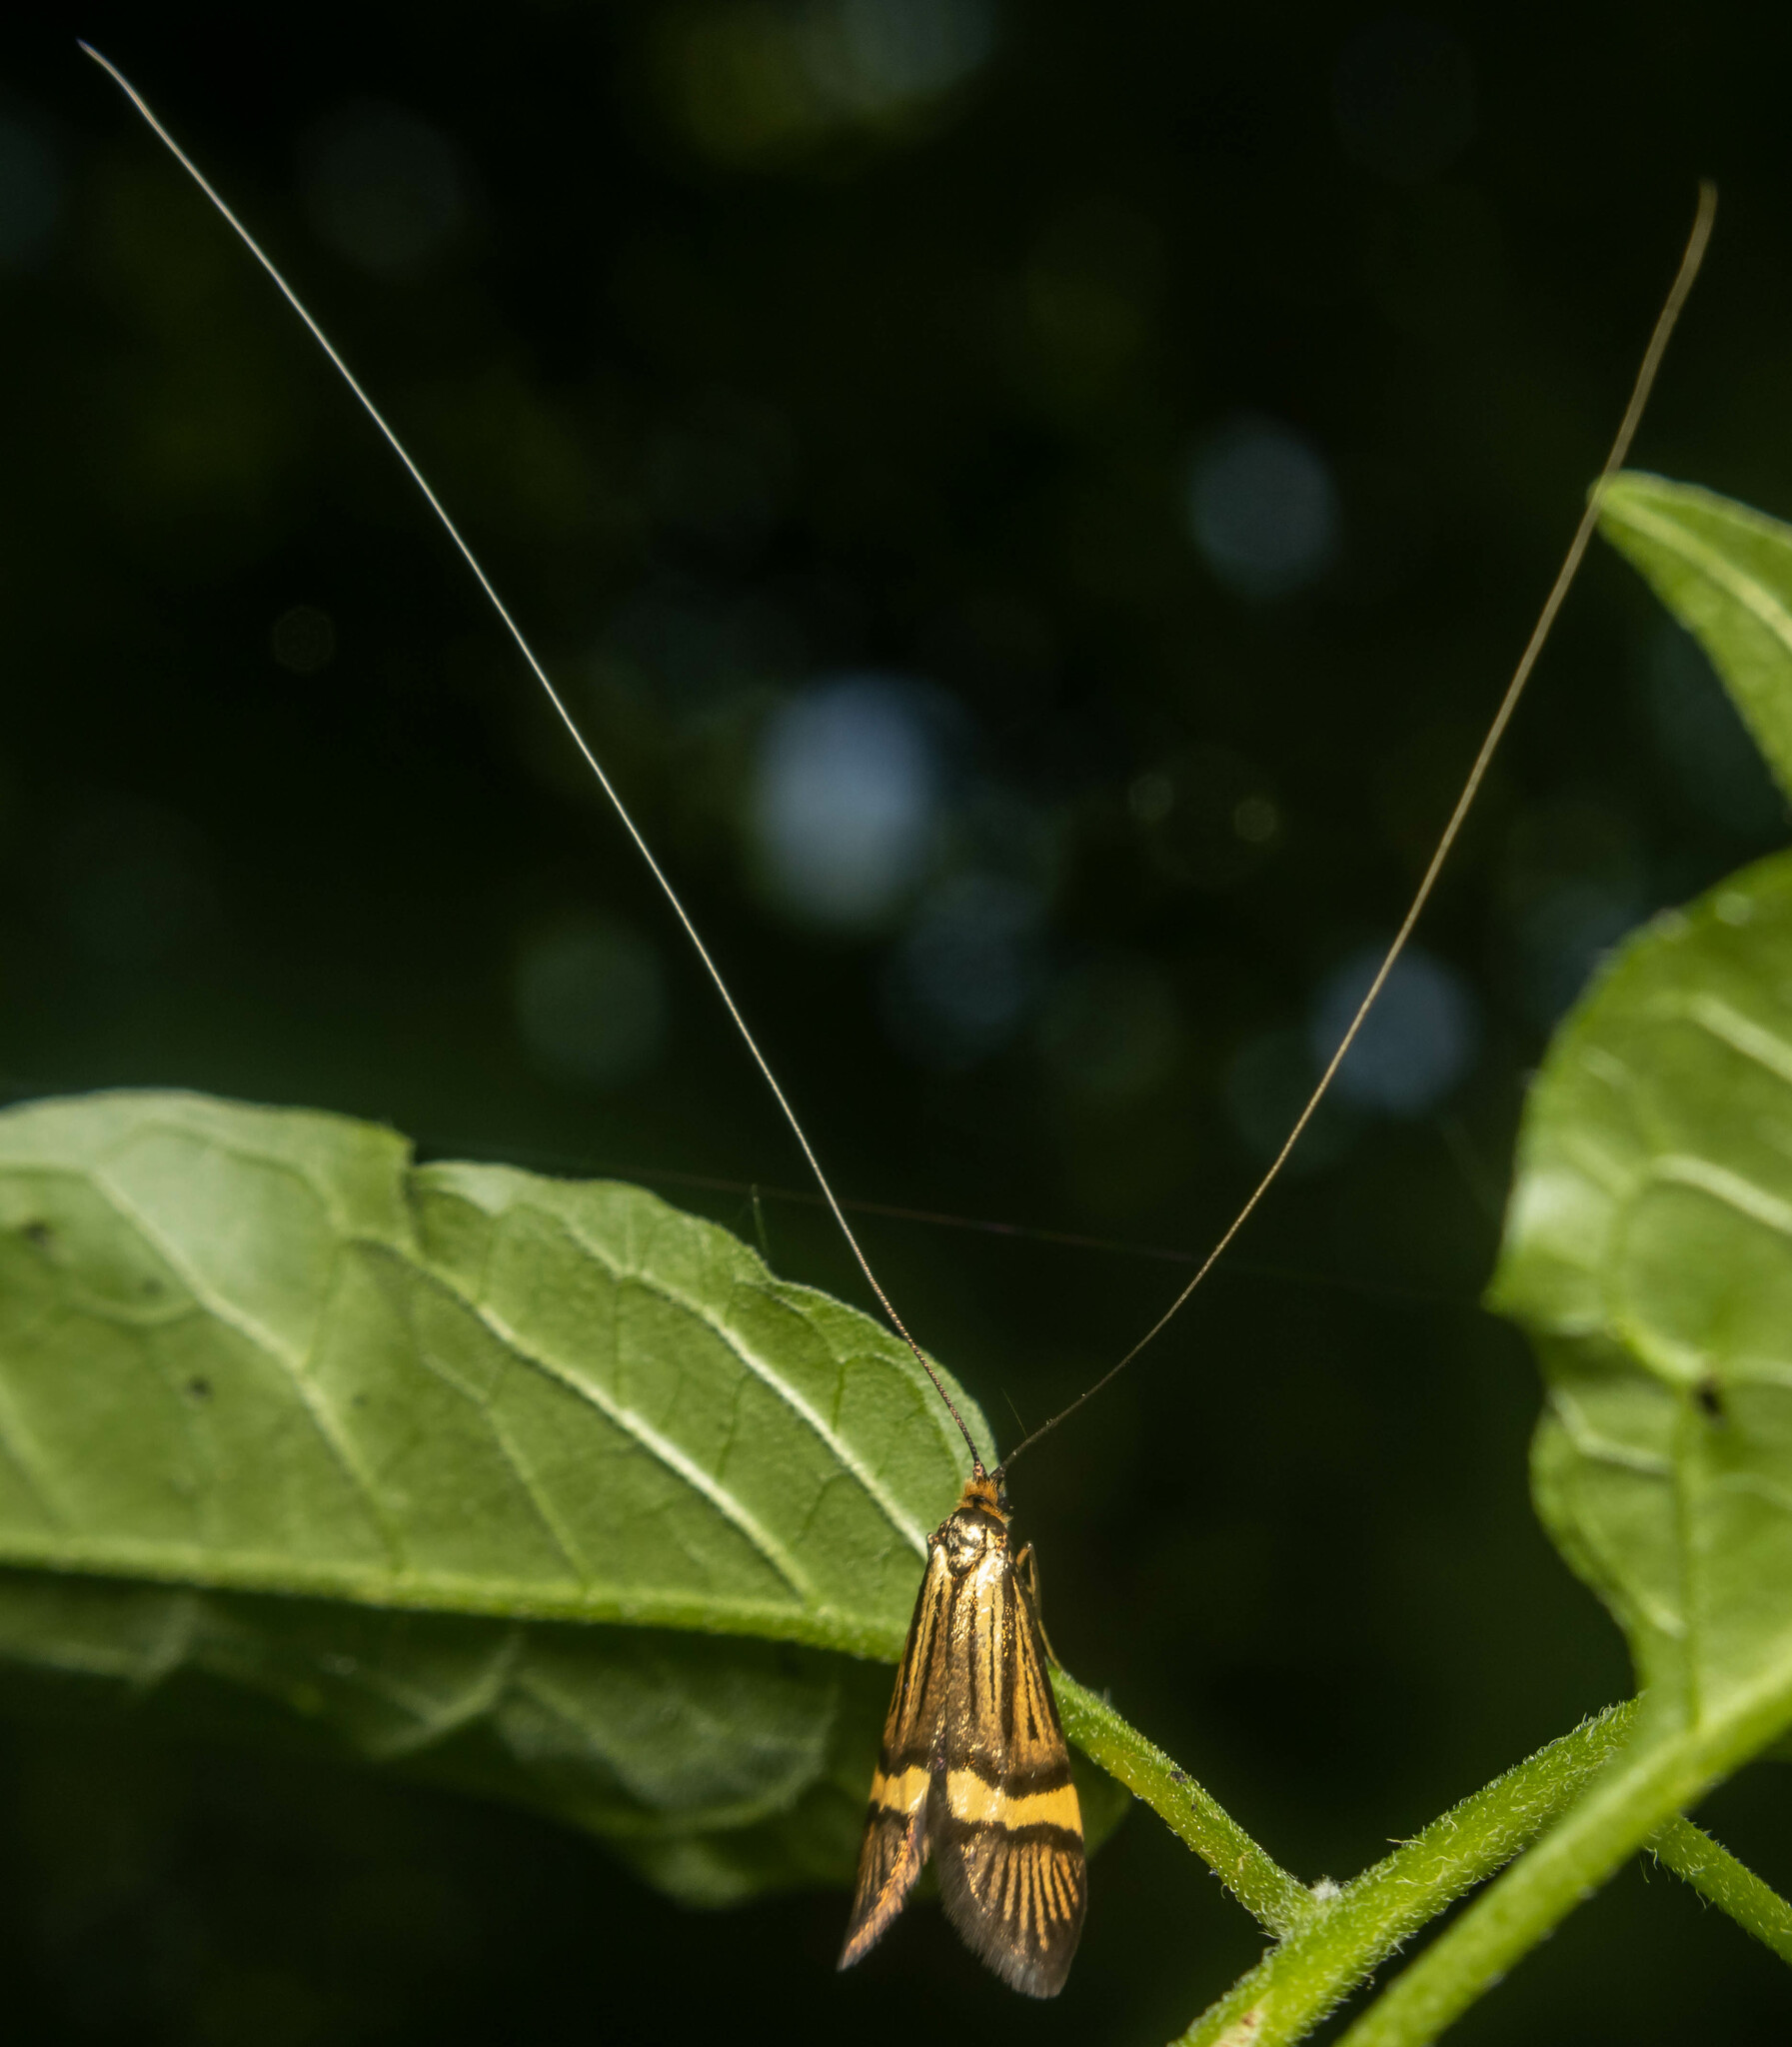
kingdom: Animalia
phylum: Arthropoda
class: Insecta
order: Lepidoptera
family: Adelidae
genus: Nemophora
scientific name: Nemophora degeerella
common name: Yellow-barred long-horn
